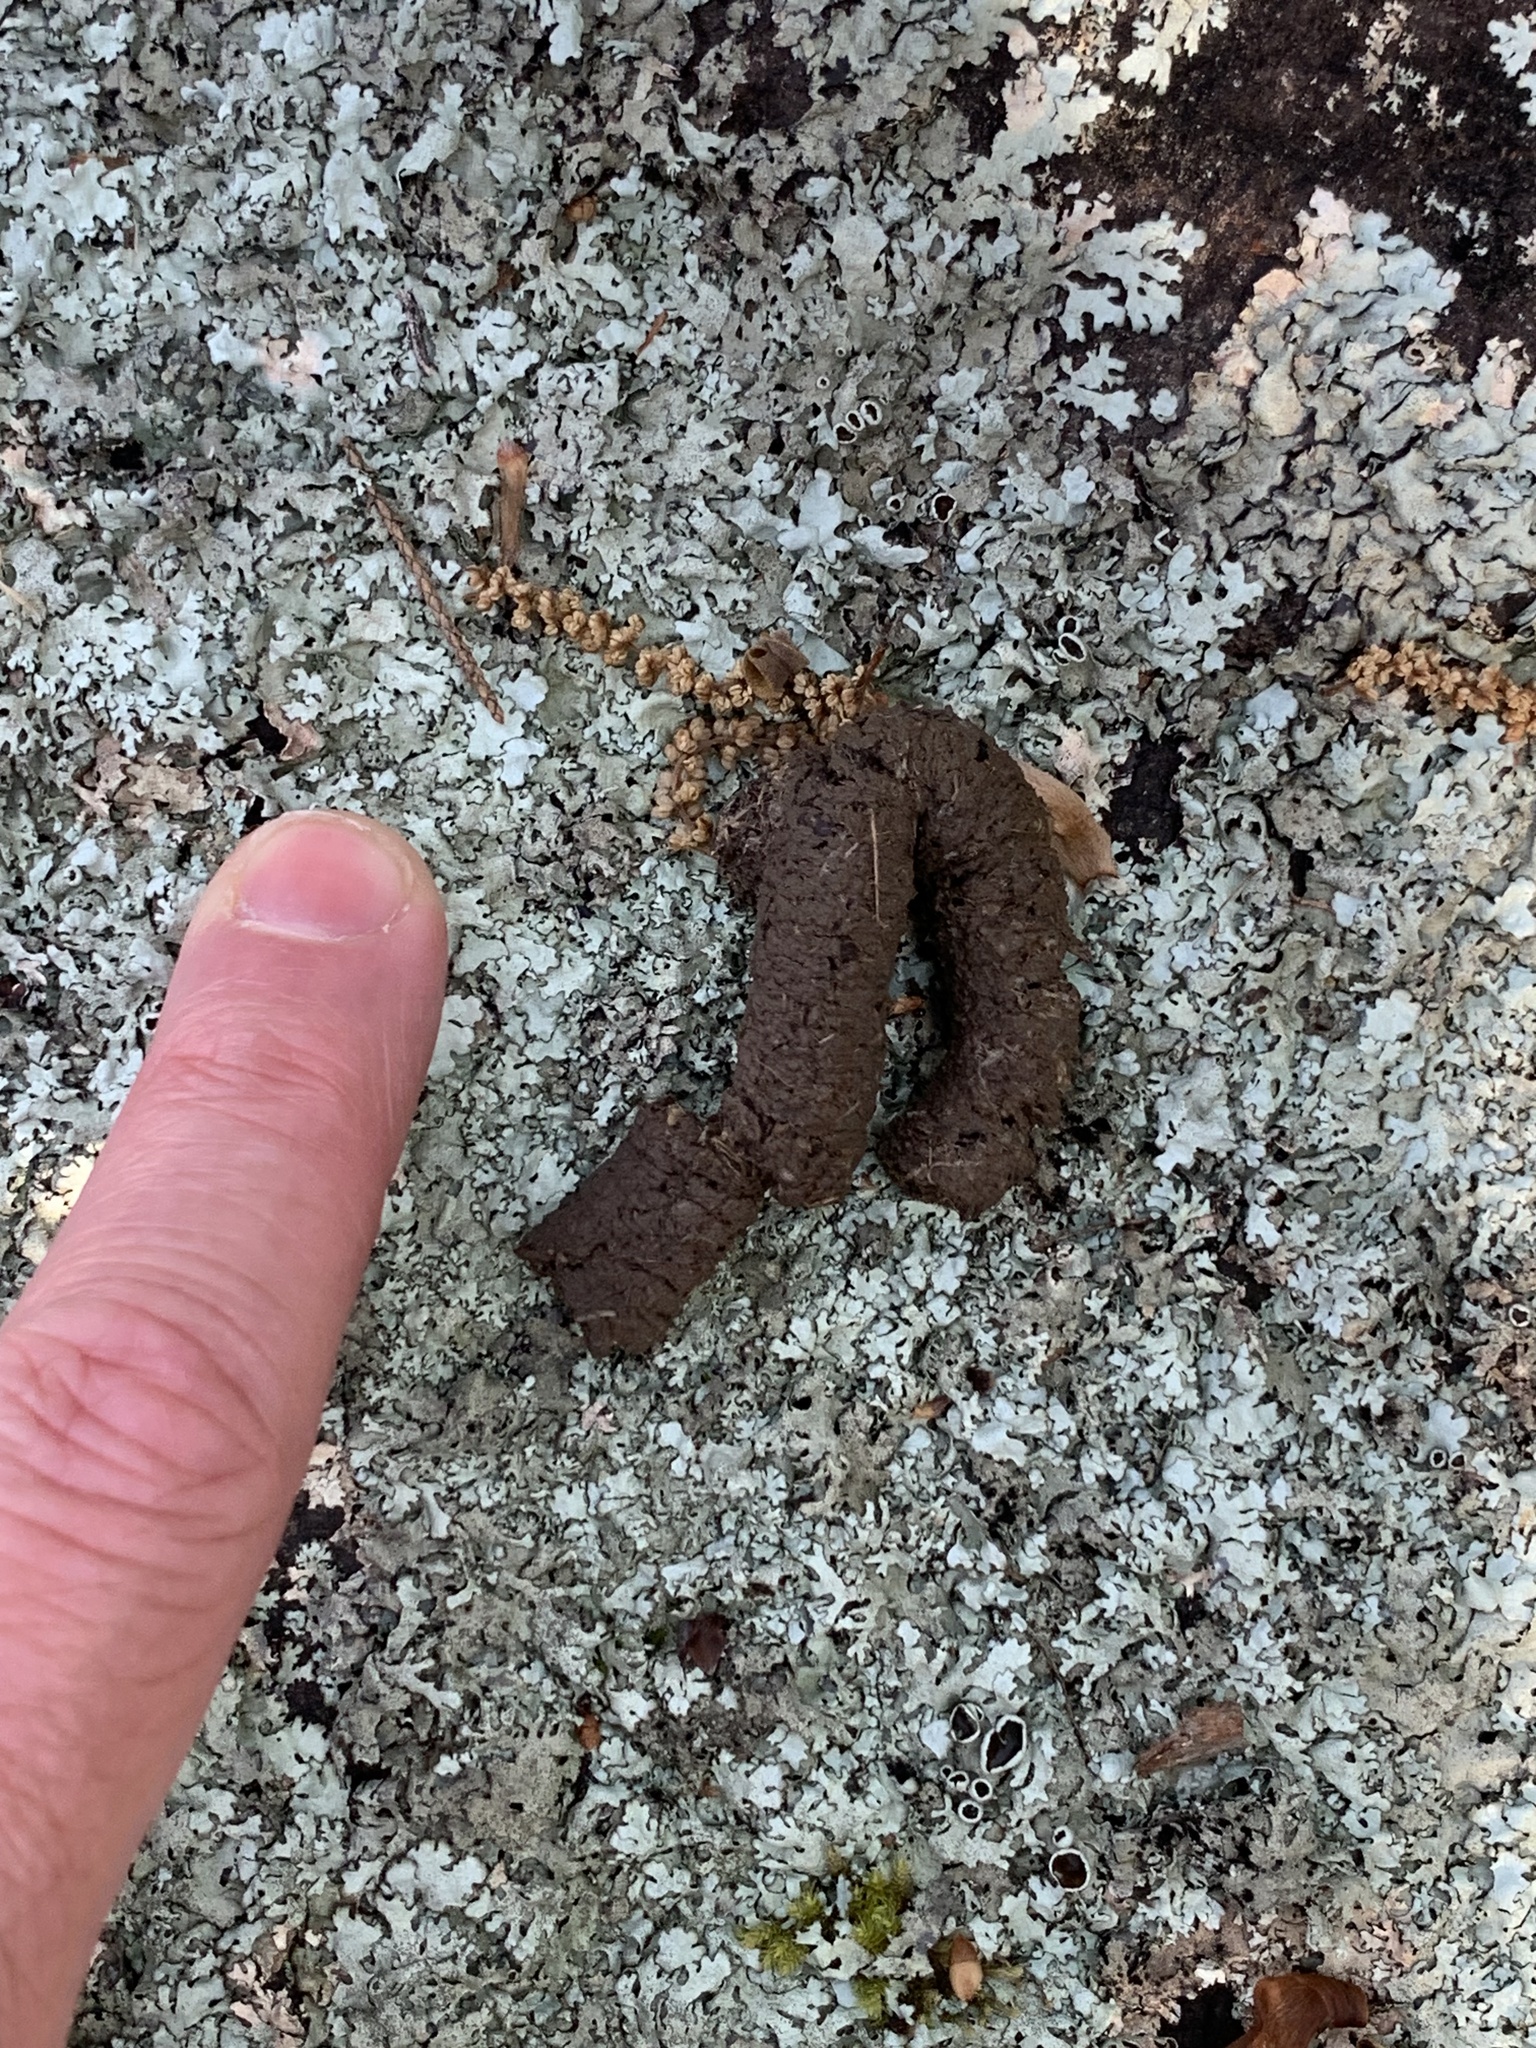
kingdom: Animalia
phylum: Chordata
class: Aves
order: Galliformes
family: Phasianidae
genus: Meleagris
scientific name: Meleagris gallopavo
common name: Wild turkey
